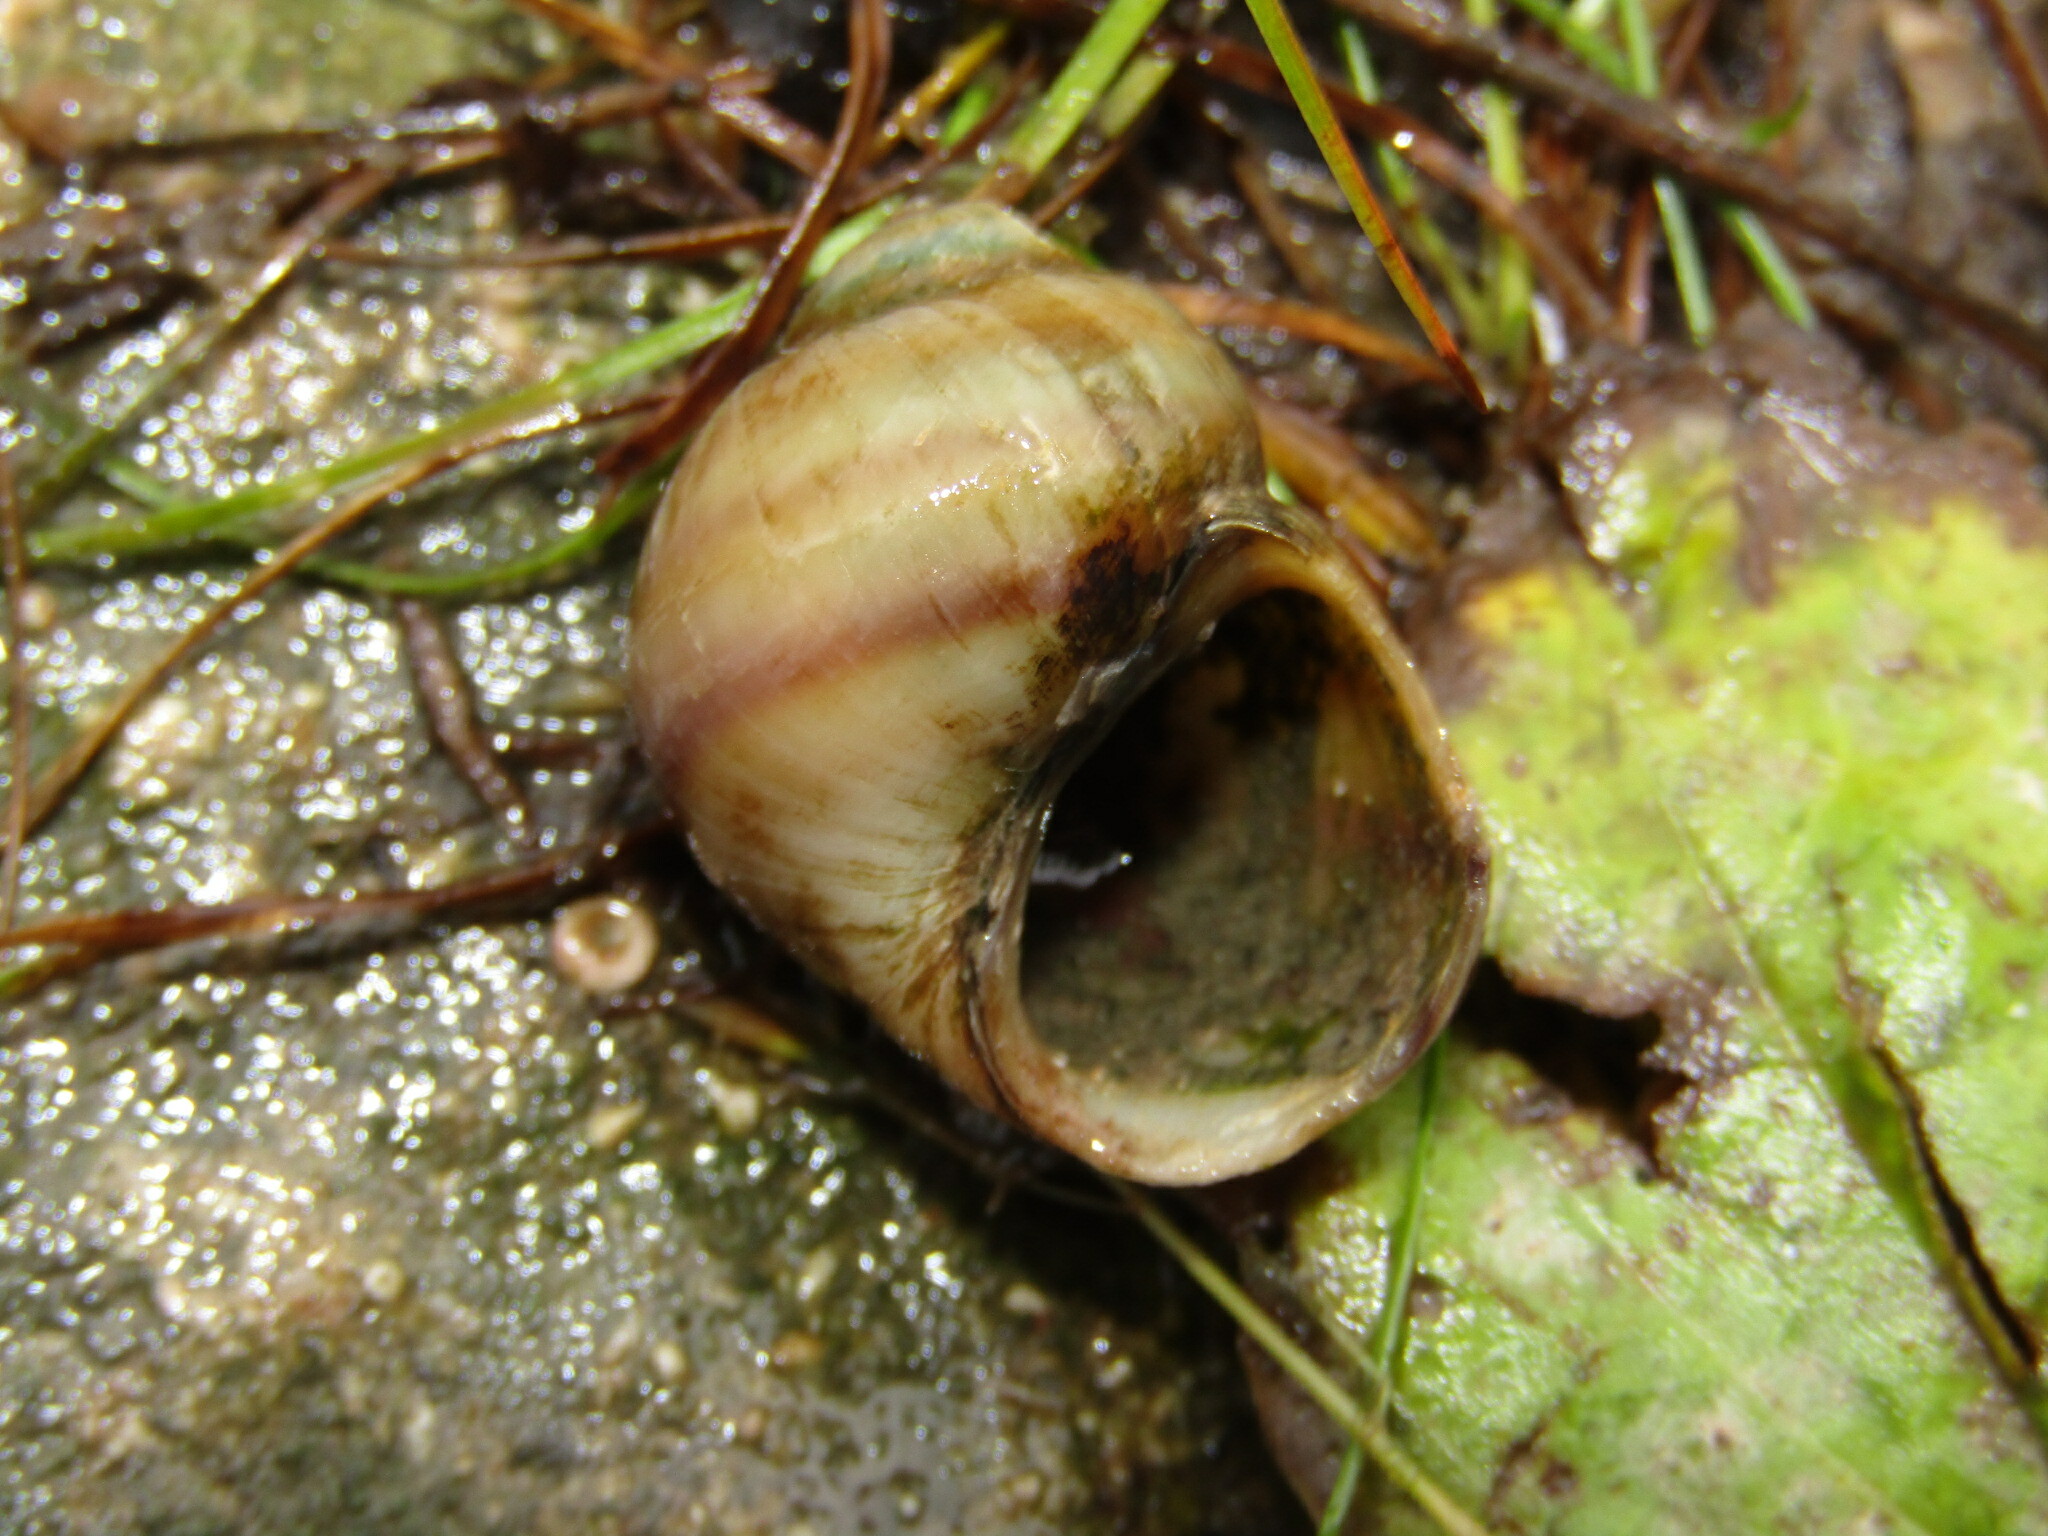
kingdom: Animalia
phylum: Mollusca
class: Gastropoda
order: Architaenioglossa
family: Viviparidae
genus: Viviparus
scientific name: Viviparus viviparus
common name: River snail
